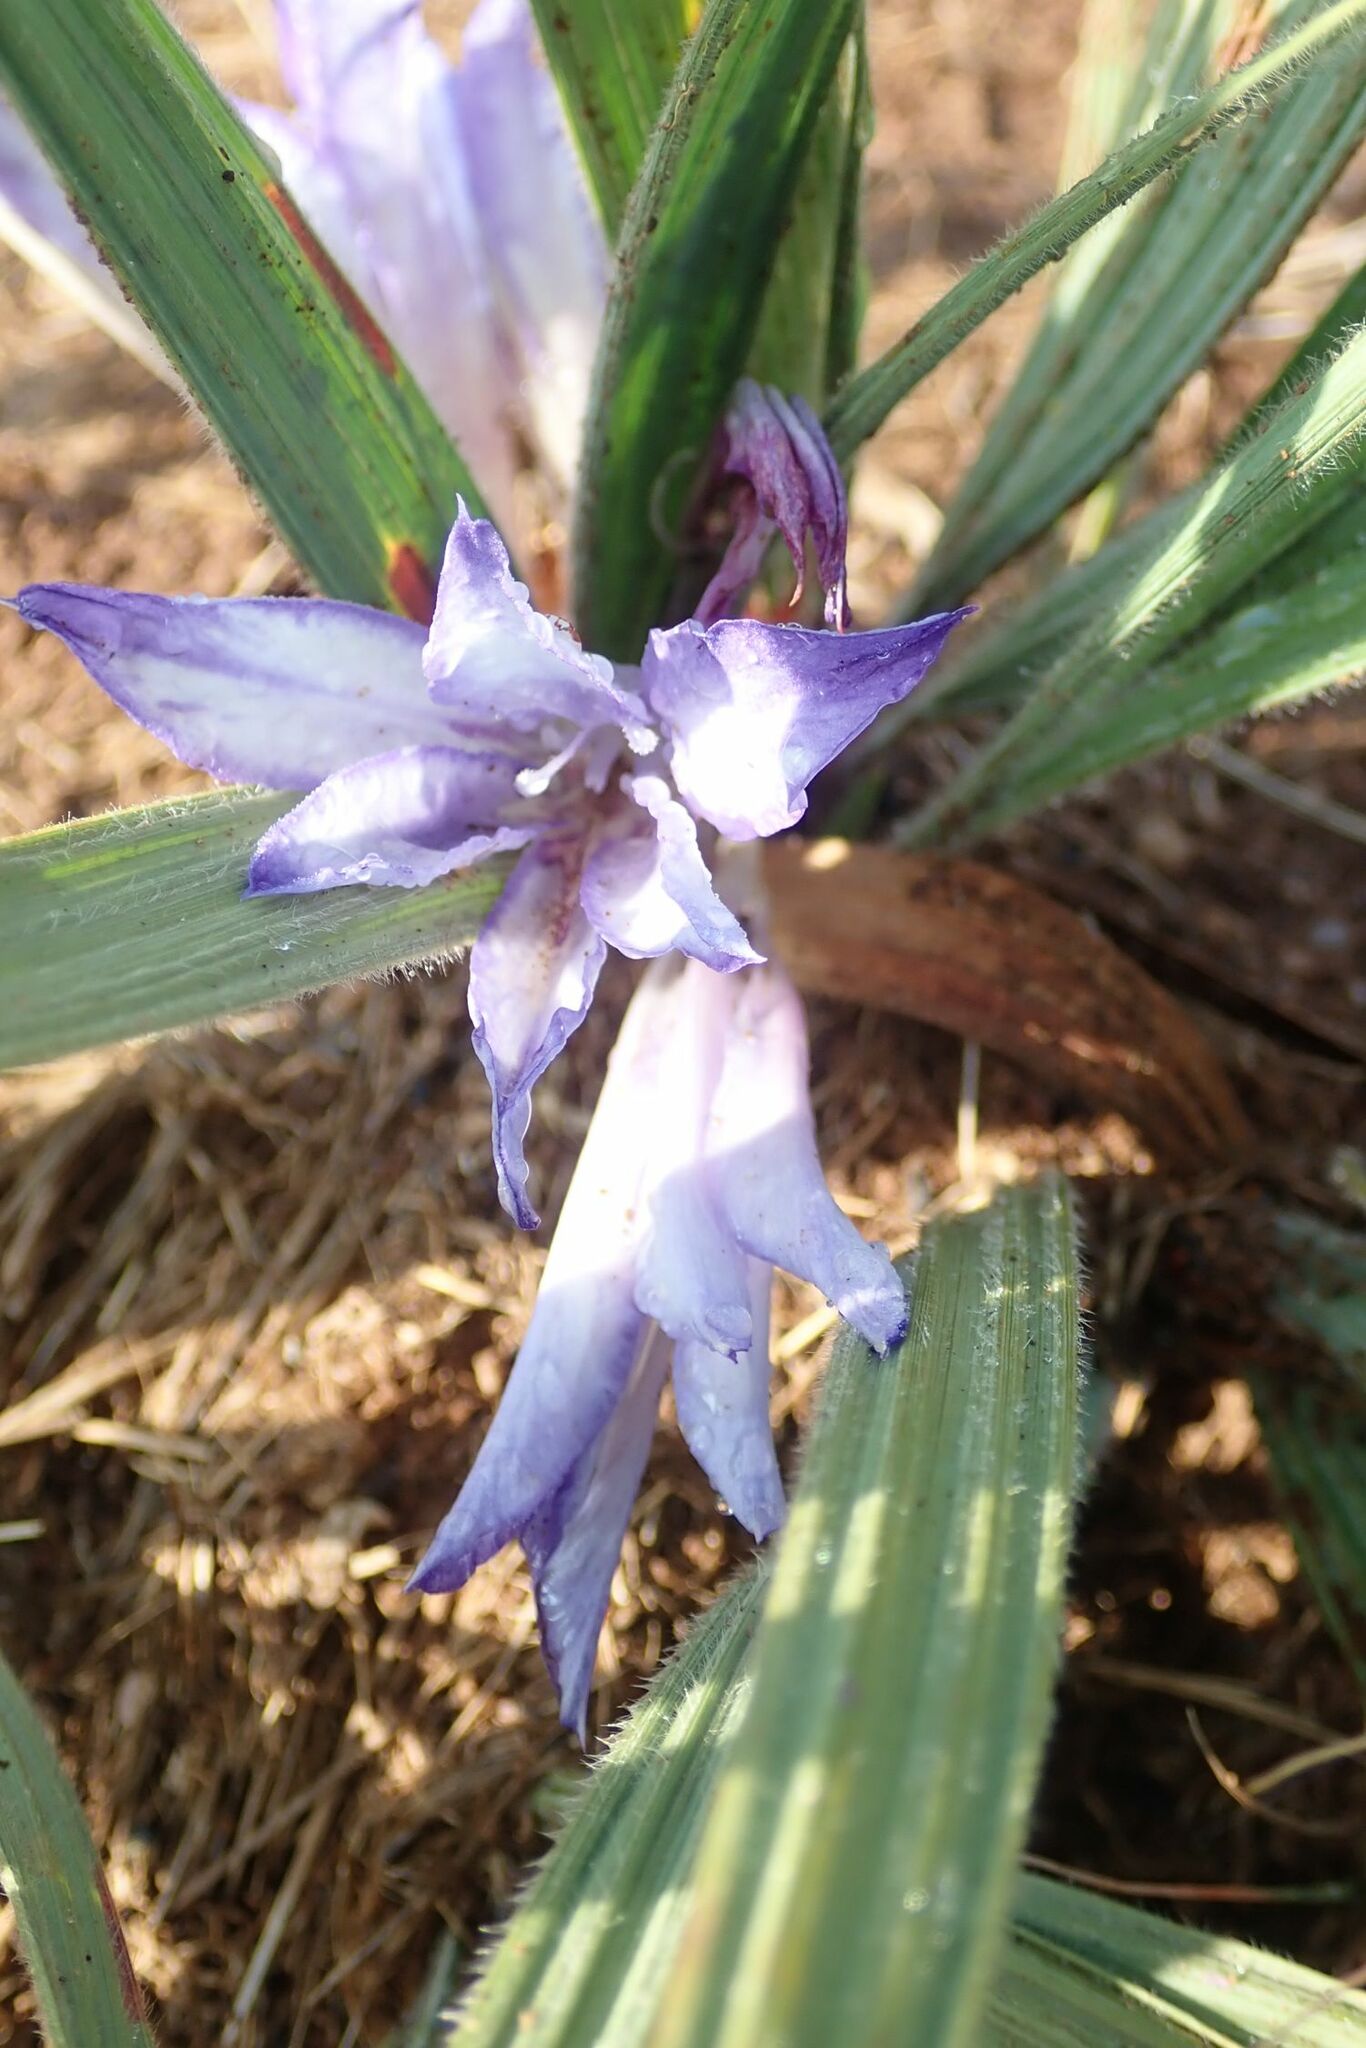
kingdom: Plantae
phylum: Tracheophyta
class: Liliopsida
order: Asparagales
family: Iridaceae
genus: Babiana
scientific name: Babiana bainesii
